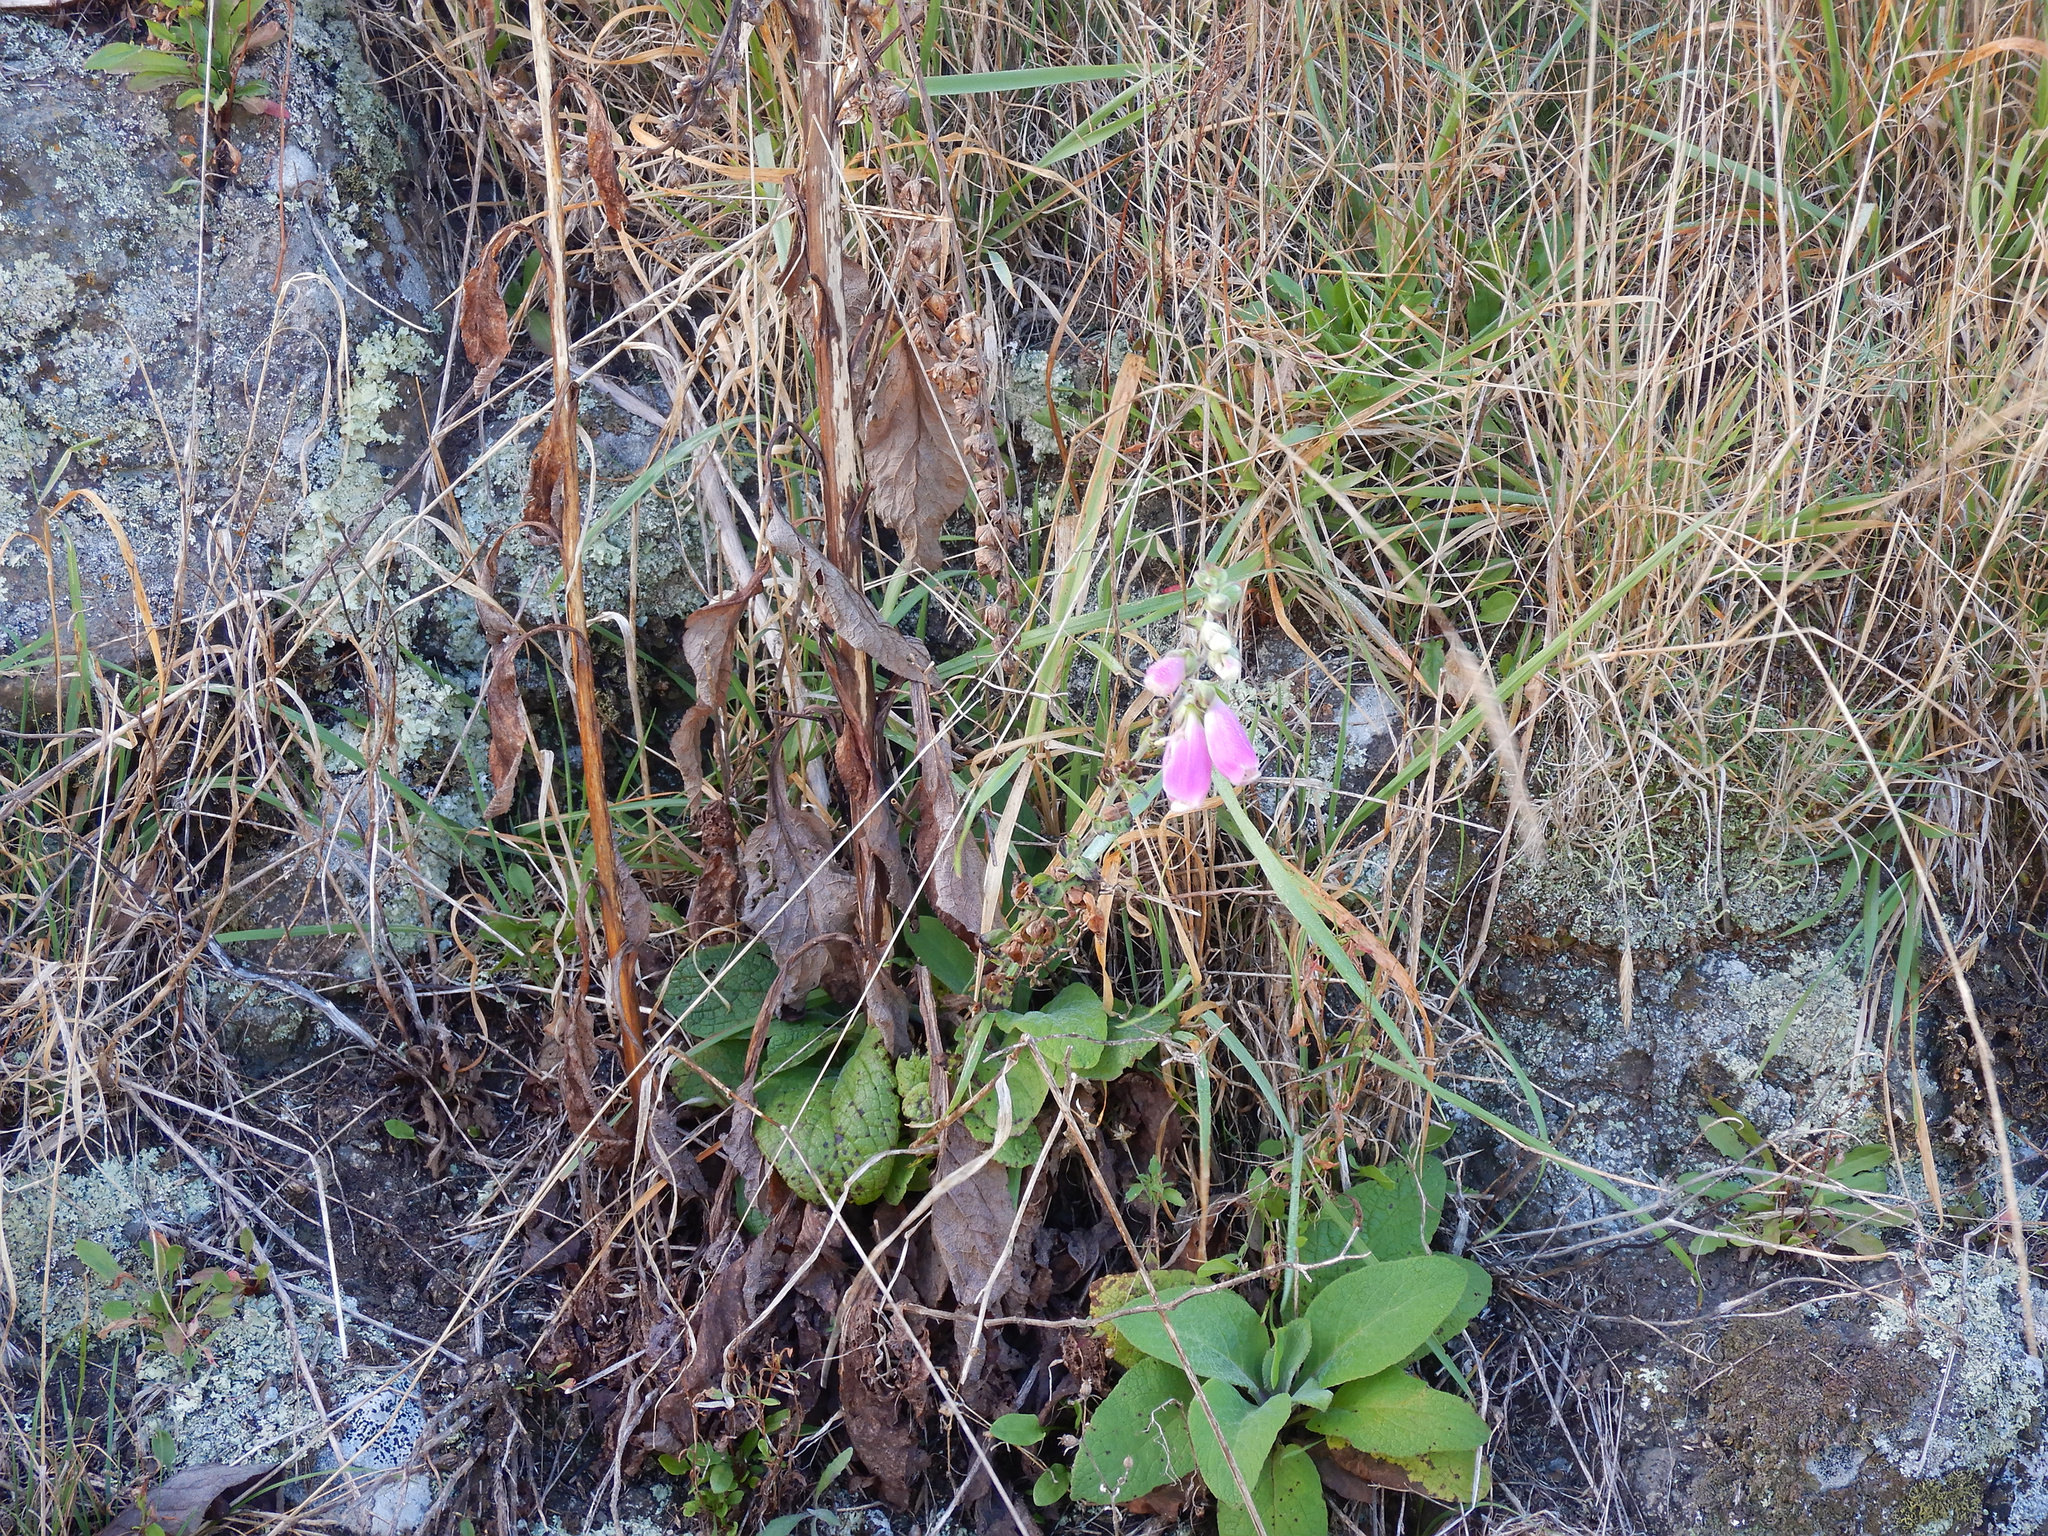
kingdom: Plantae
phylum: Tracheophyta
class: Magnoliopsida
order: Lamiales
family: Plantaginaceae
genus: Digitalis
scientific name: Digitalis purpurea
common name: Foxglove
